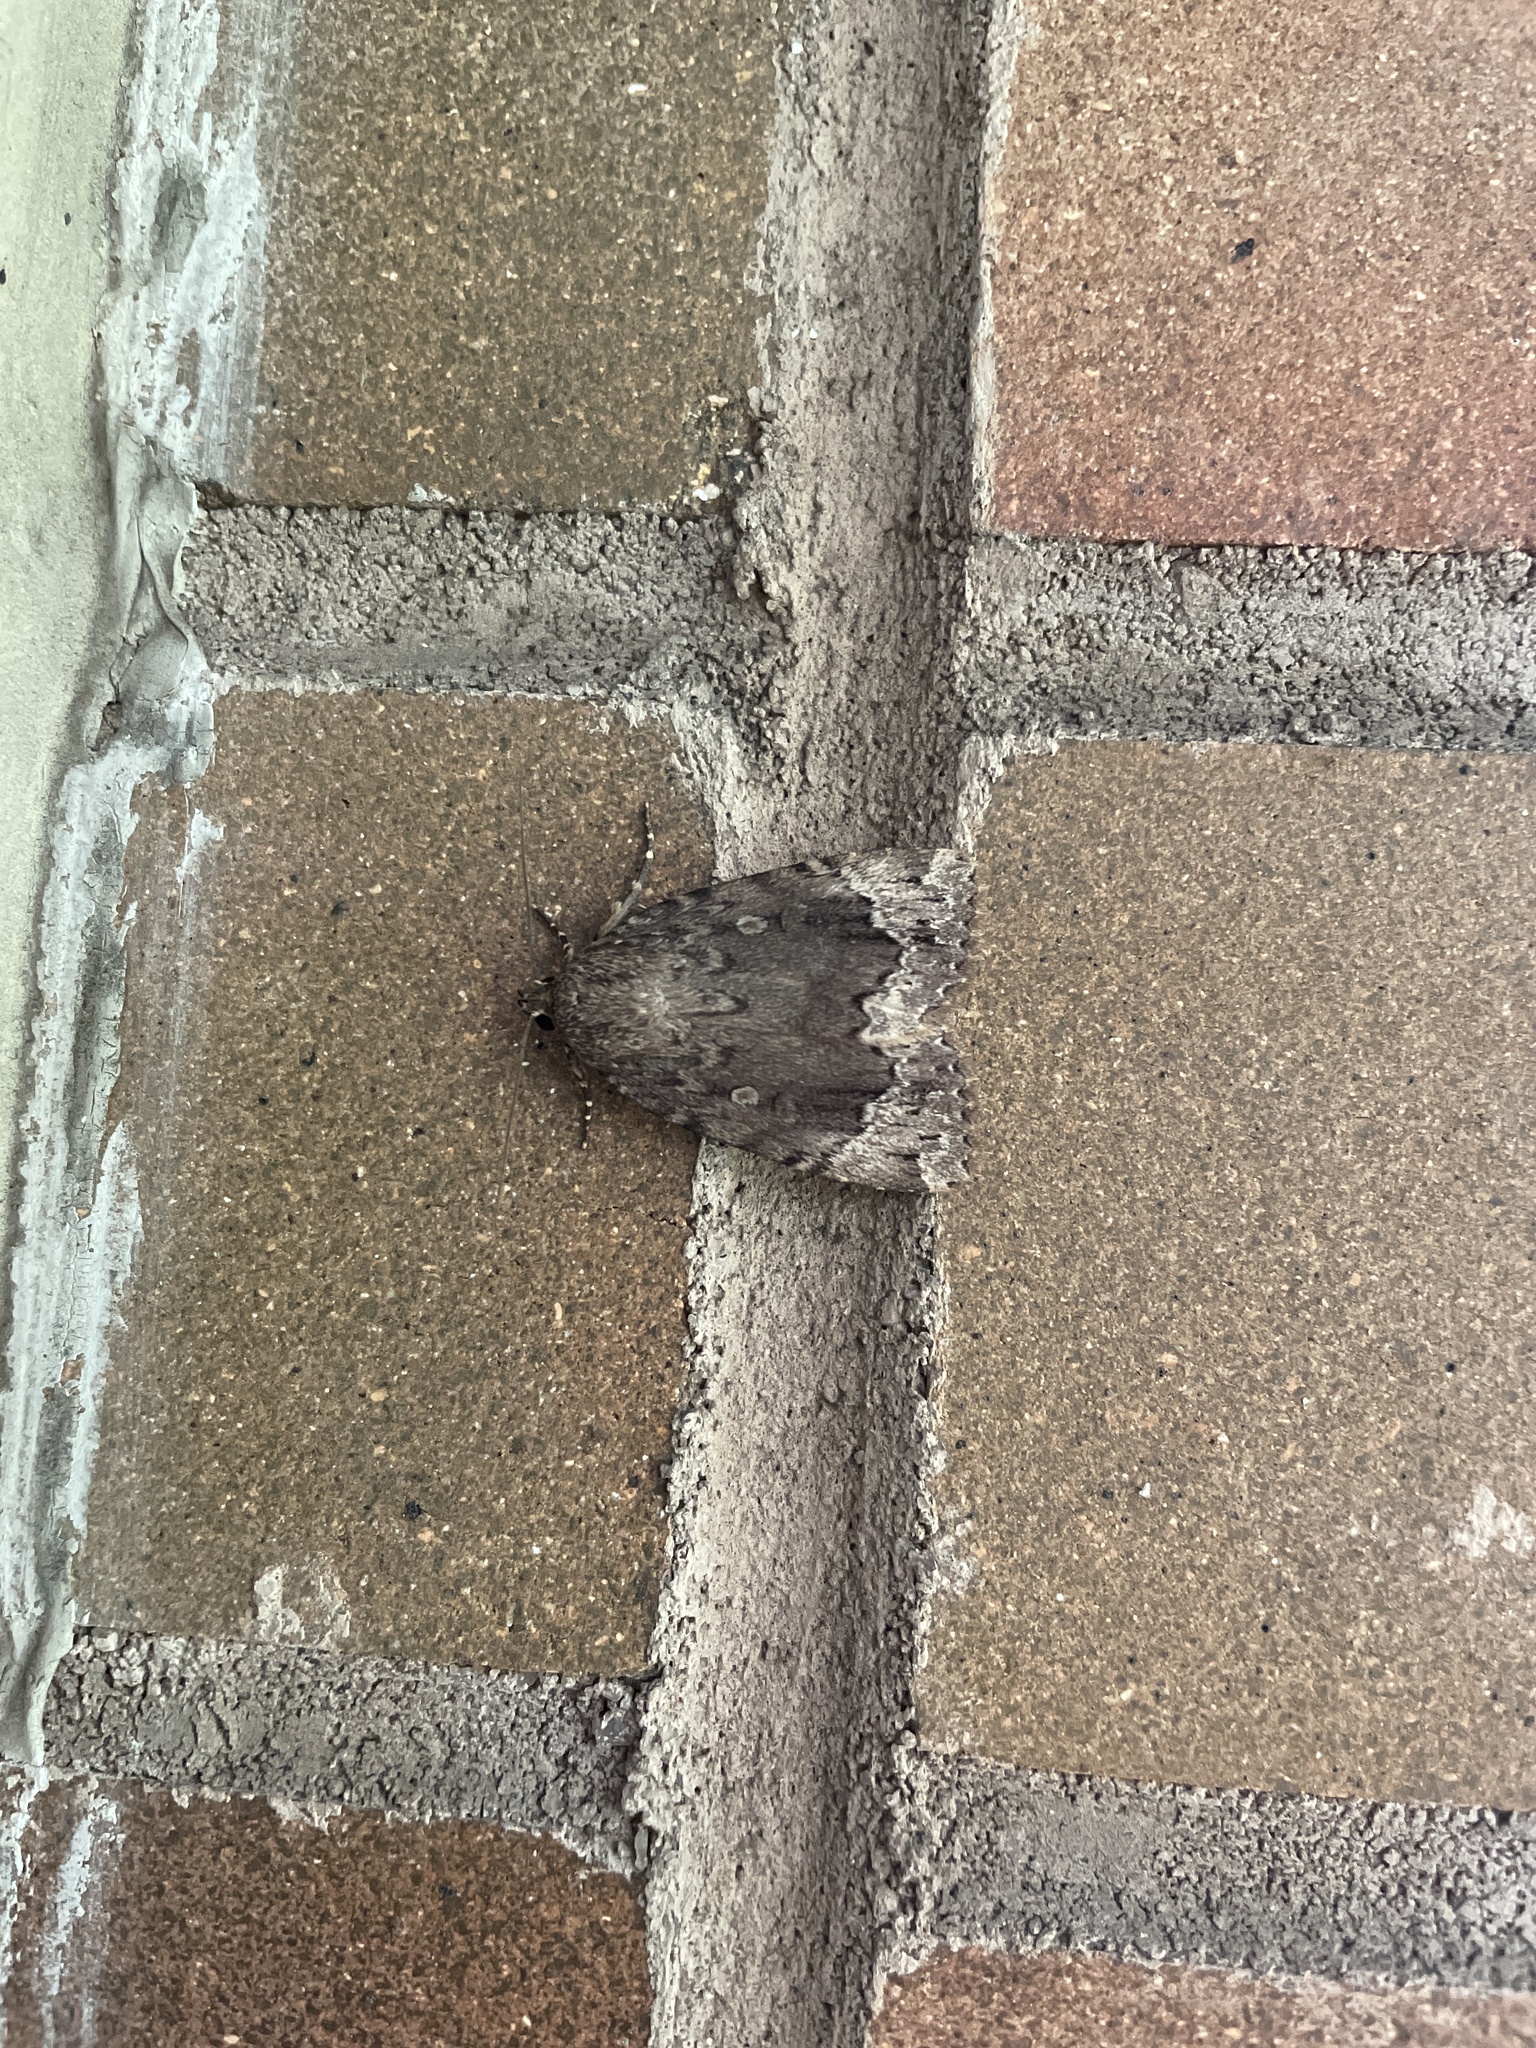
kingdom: Animalia
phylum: Arthropoda
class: Insecta
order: Lepidoptera
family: Noctuidae
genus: Amphipyra
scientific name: Amphipyra pyramidoides
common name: American copper underwing
